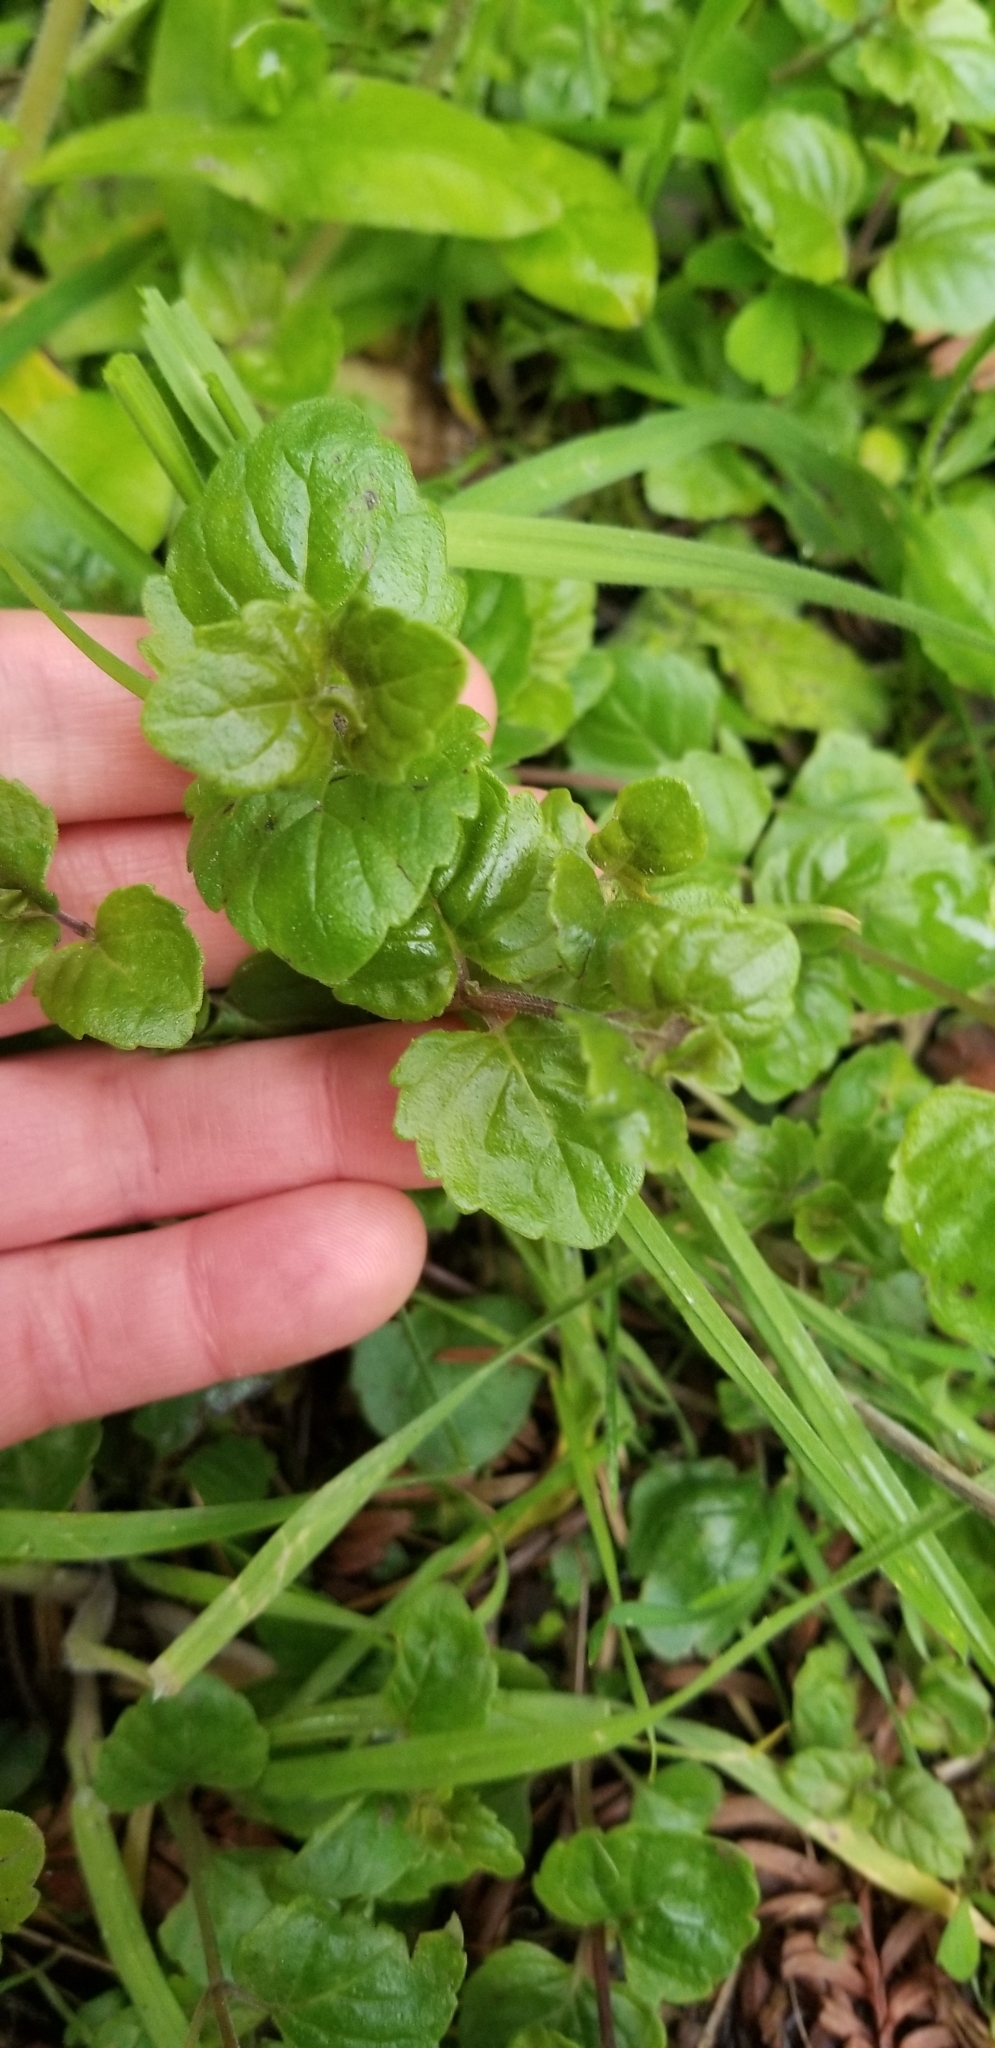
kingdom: Plantae
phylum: Tracheophyta
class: Magnoliopsida
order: Lamiales
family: Lamiaceae
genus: Micromeria
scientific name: Micromeria douglasii
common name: Yerba buena
